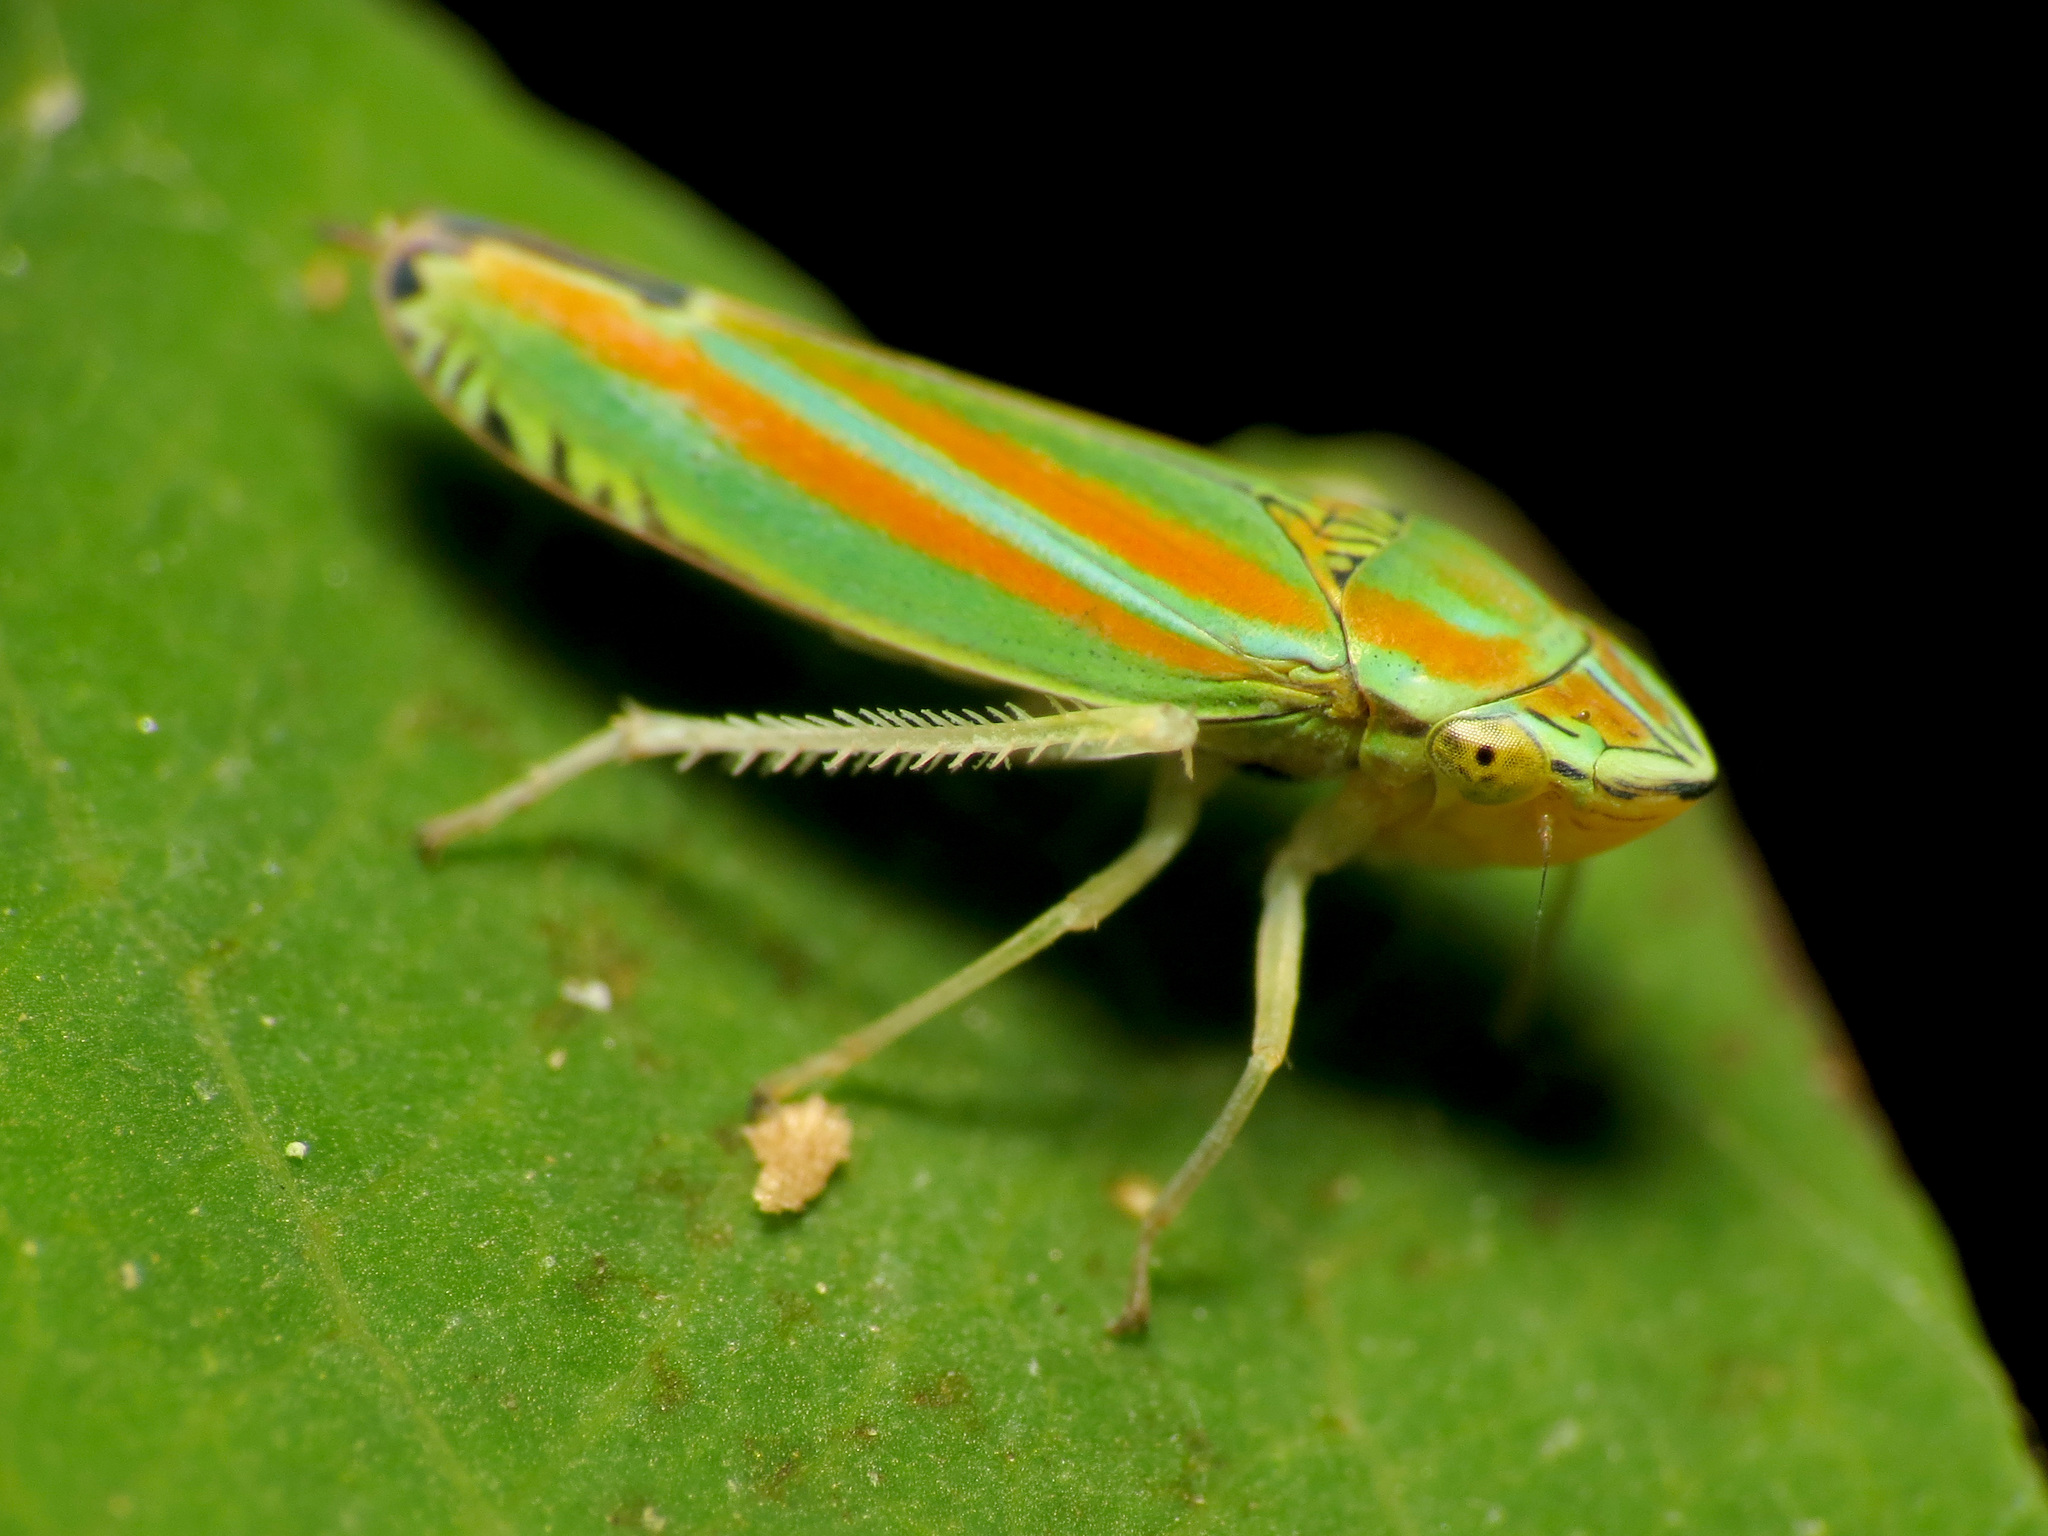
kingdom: Animalia
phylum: Arthropoda
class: Insecta
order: Hemiptera
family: Cicadellidae
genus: Graphocephala
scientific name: Graphocephala versuta
